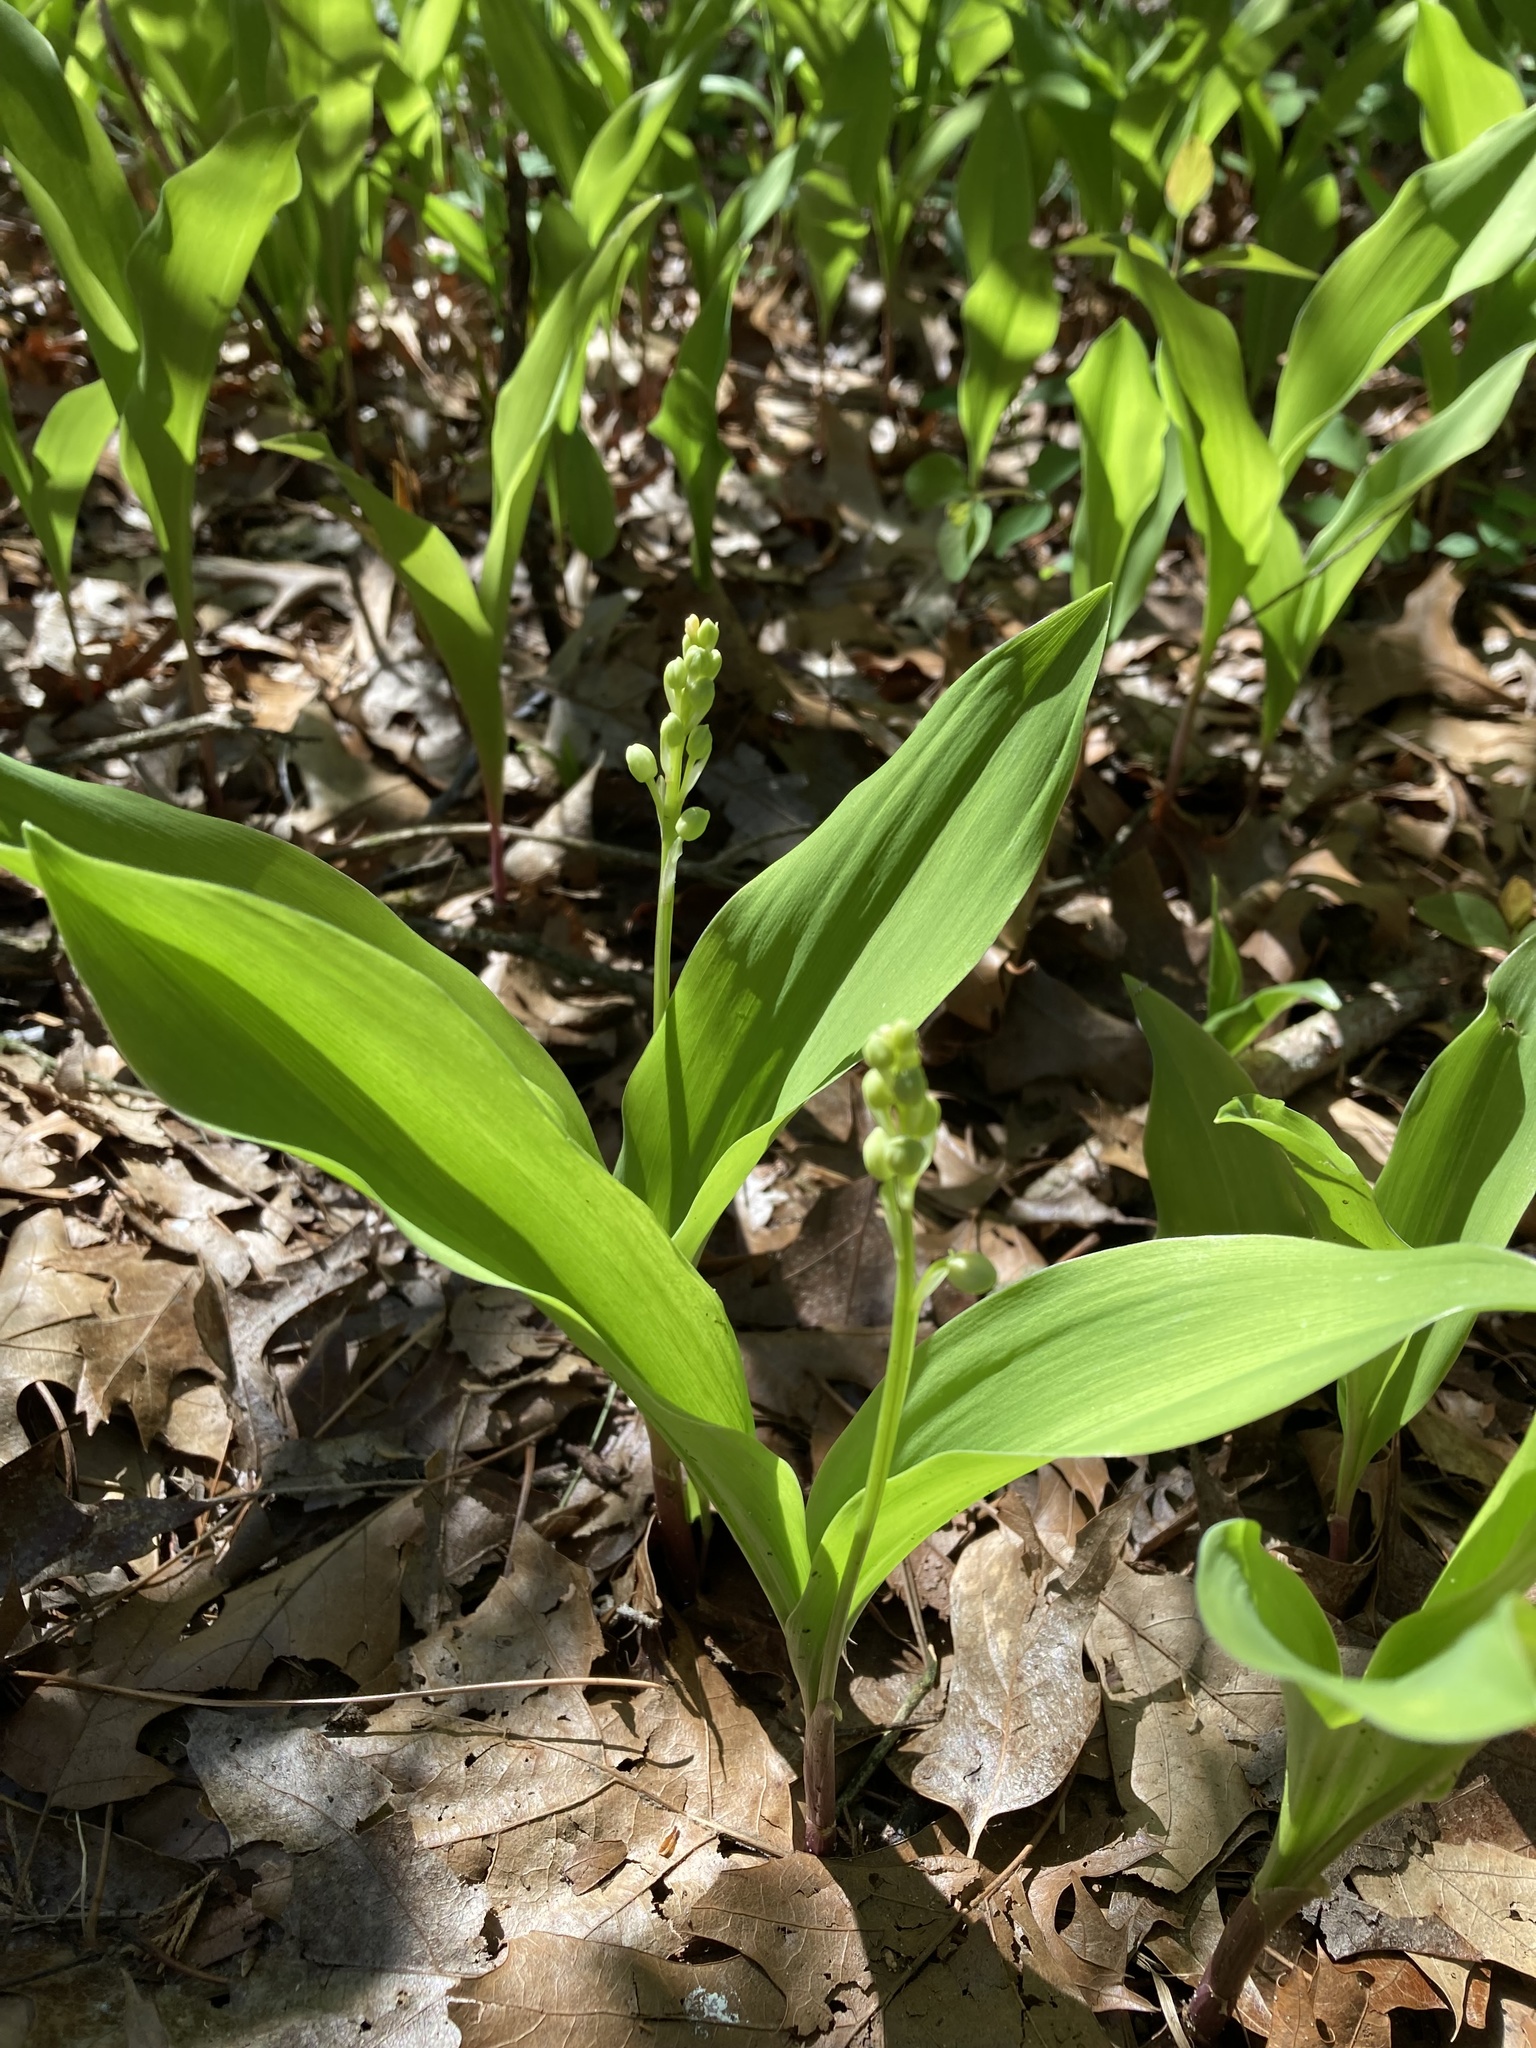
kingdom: Plantae
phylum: Tracheophyta
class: Liliopsida
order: Asparagales
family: Asparagaceae
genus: Convallaria
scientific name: Convallaria majalis
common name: Lily-of-the-valley
